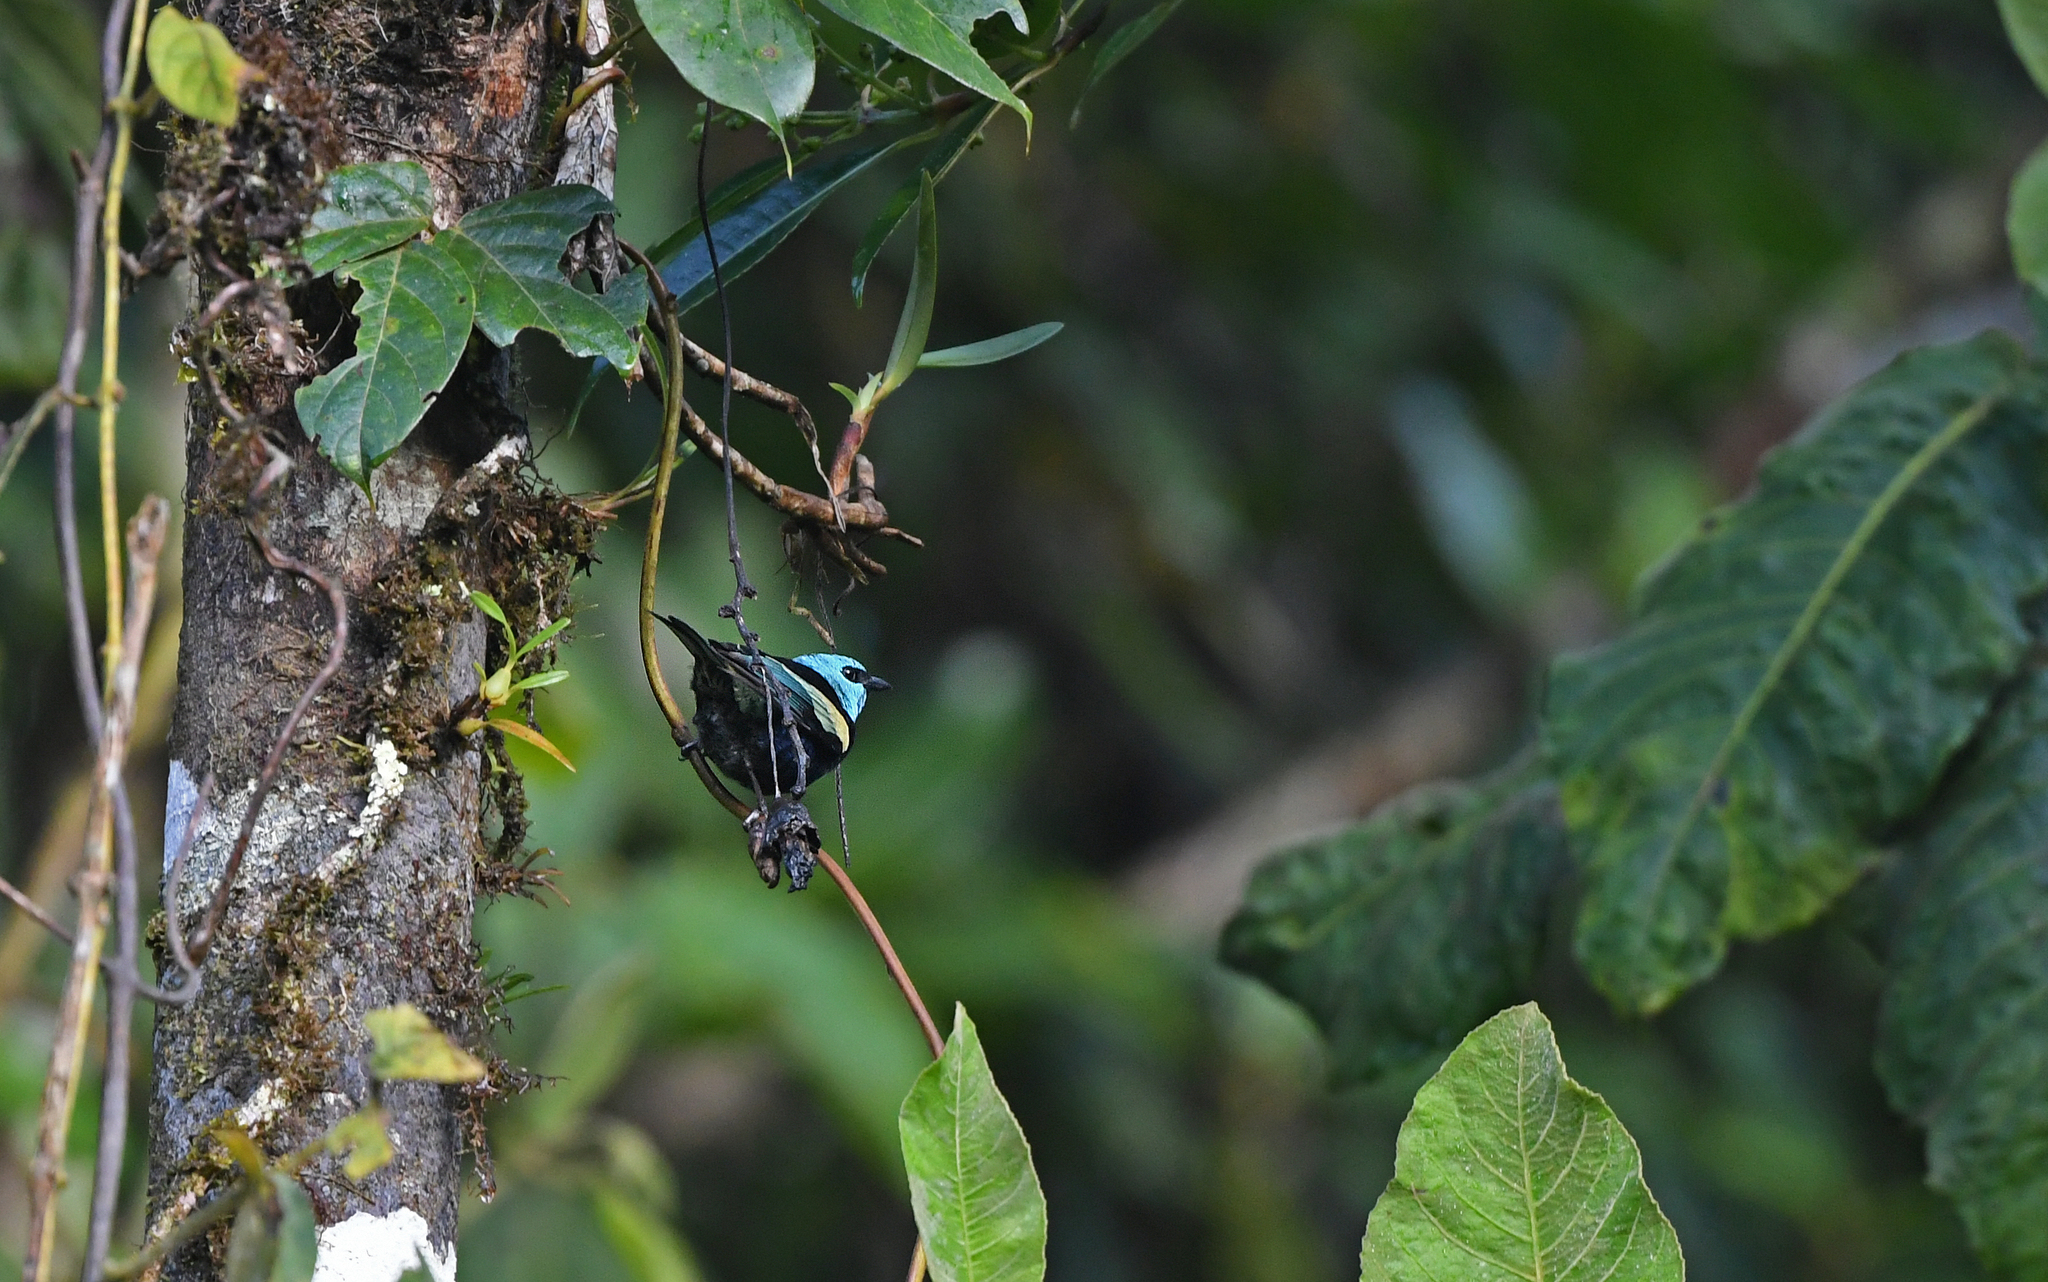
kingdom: Animalia
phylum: Chordata
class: Aves
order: Passeriformes
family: Thraupidae
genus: Stilpnia
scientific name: Stilpnia cyanicollis
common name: Blue-necked tanager
